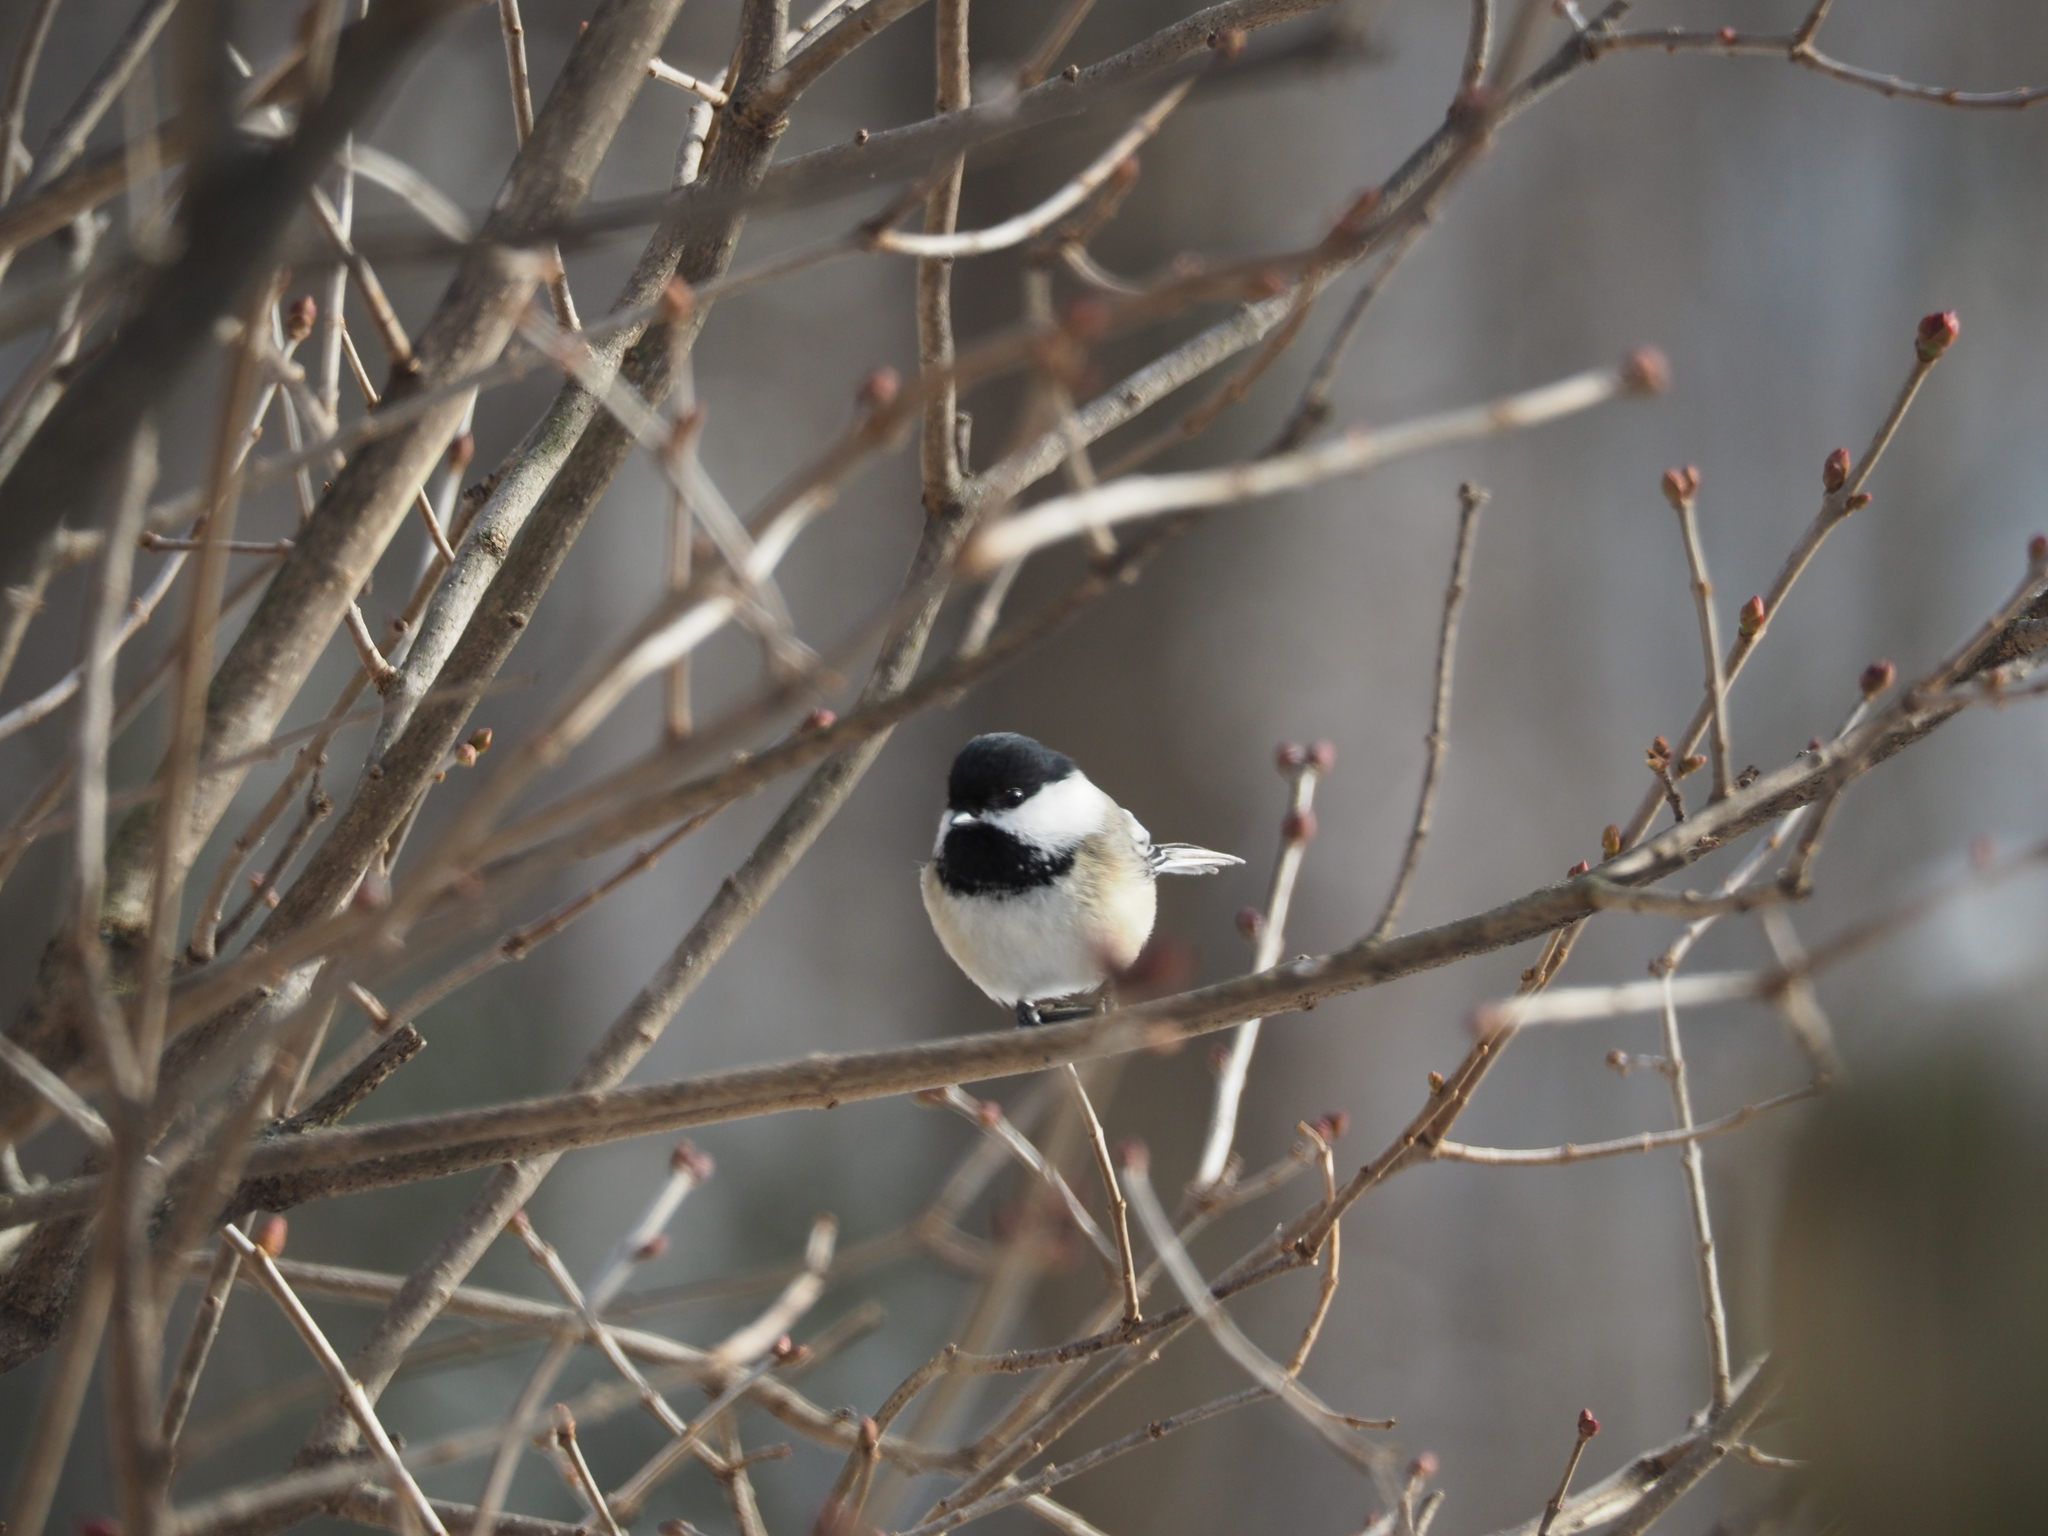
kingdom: Animalia
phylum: Chordata
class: Aves
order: Passeriformes
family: Paridae
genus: Poecile
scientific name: Poecile atricapillus
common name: Black-capped chickadee
